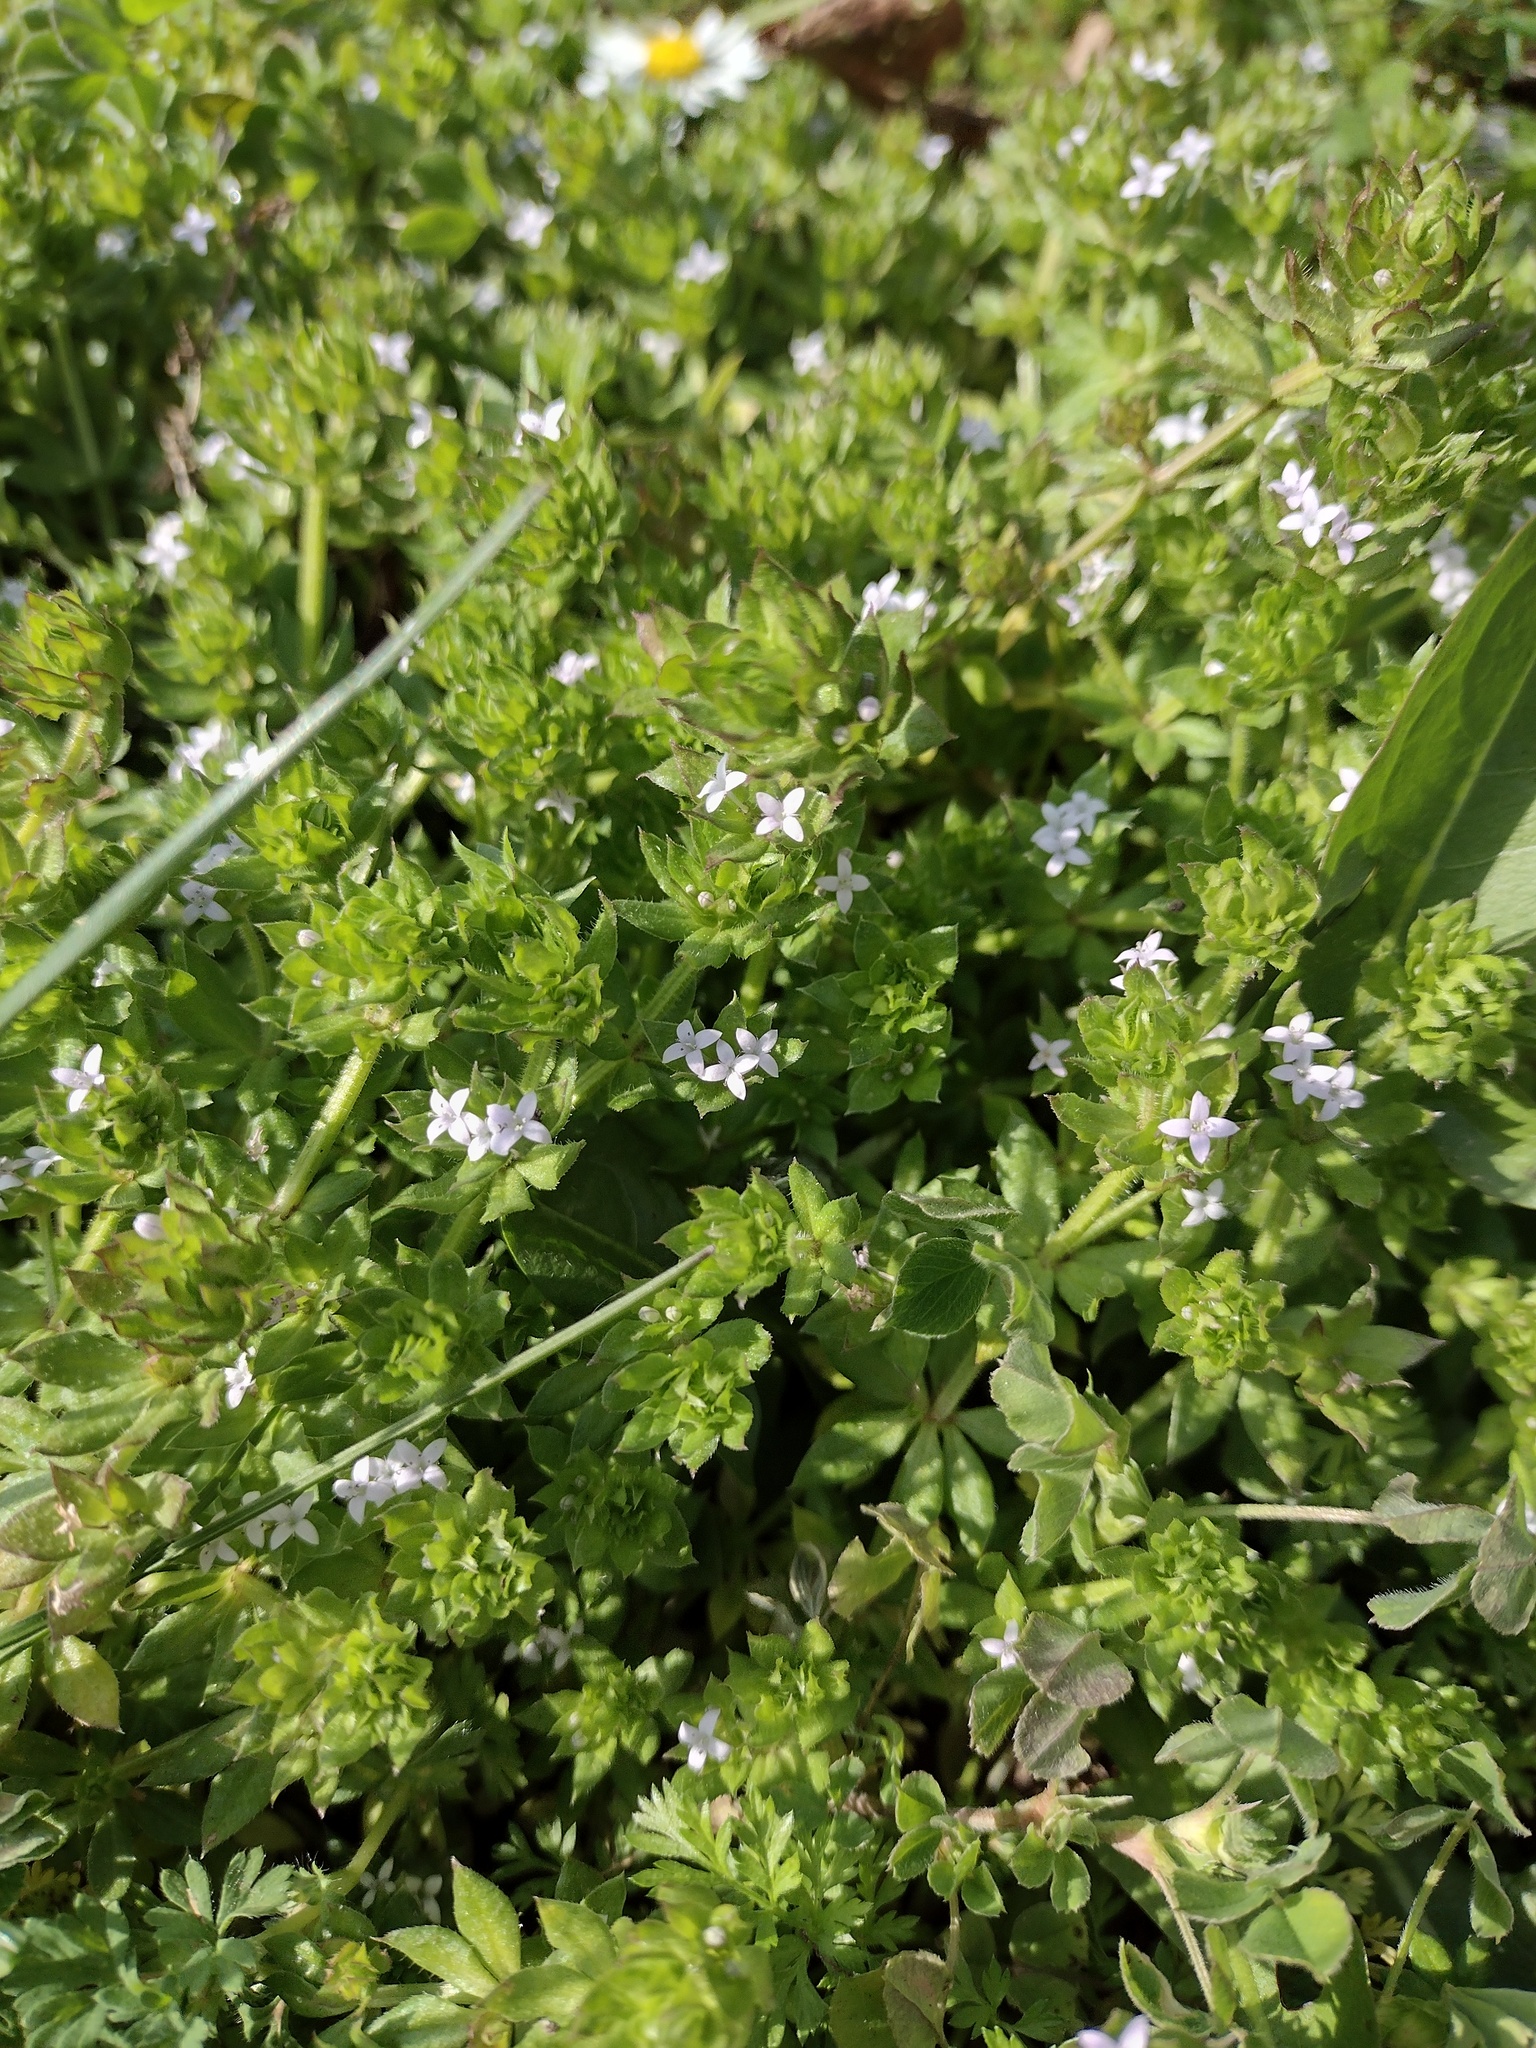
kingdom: Plantae
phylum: Tracheophyta
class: Magnoliopsida
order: Gentianales
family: Rubiaceae
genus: Sherardia
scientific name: Sherardia arvensis
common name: Field madder
